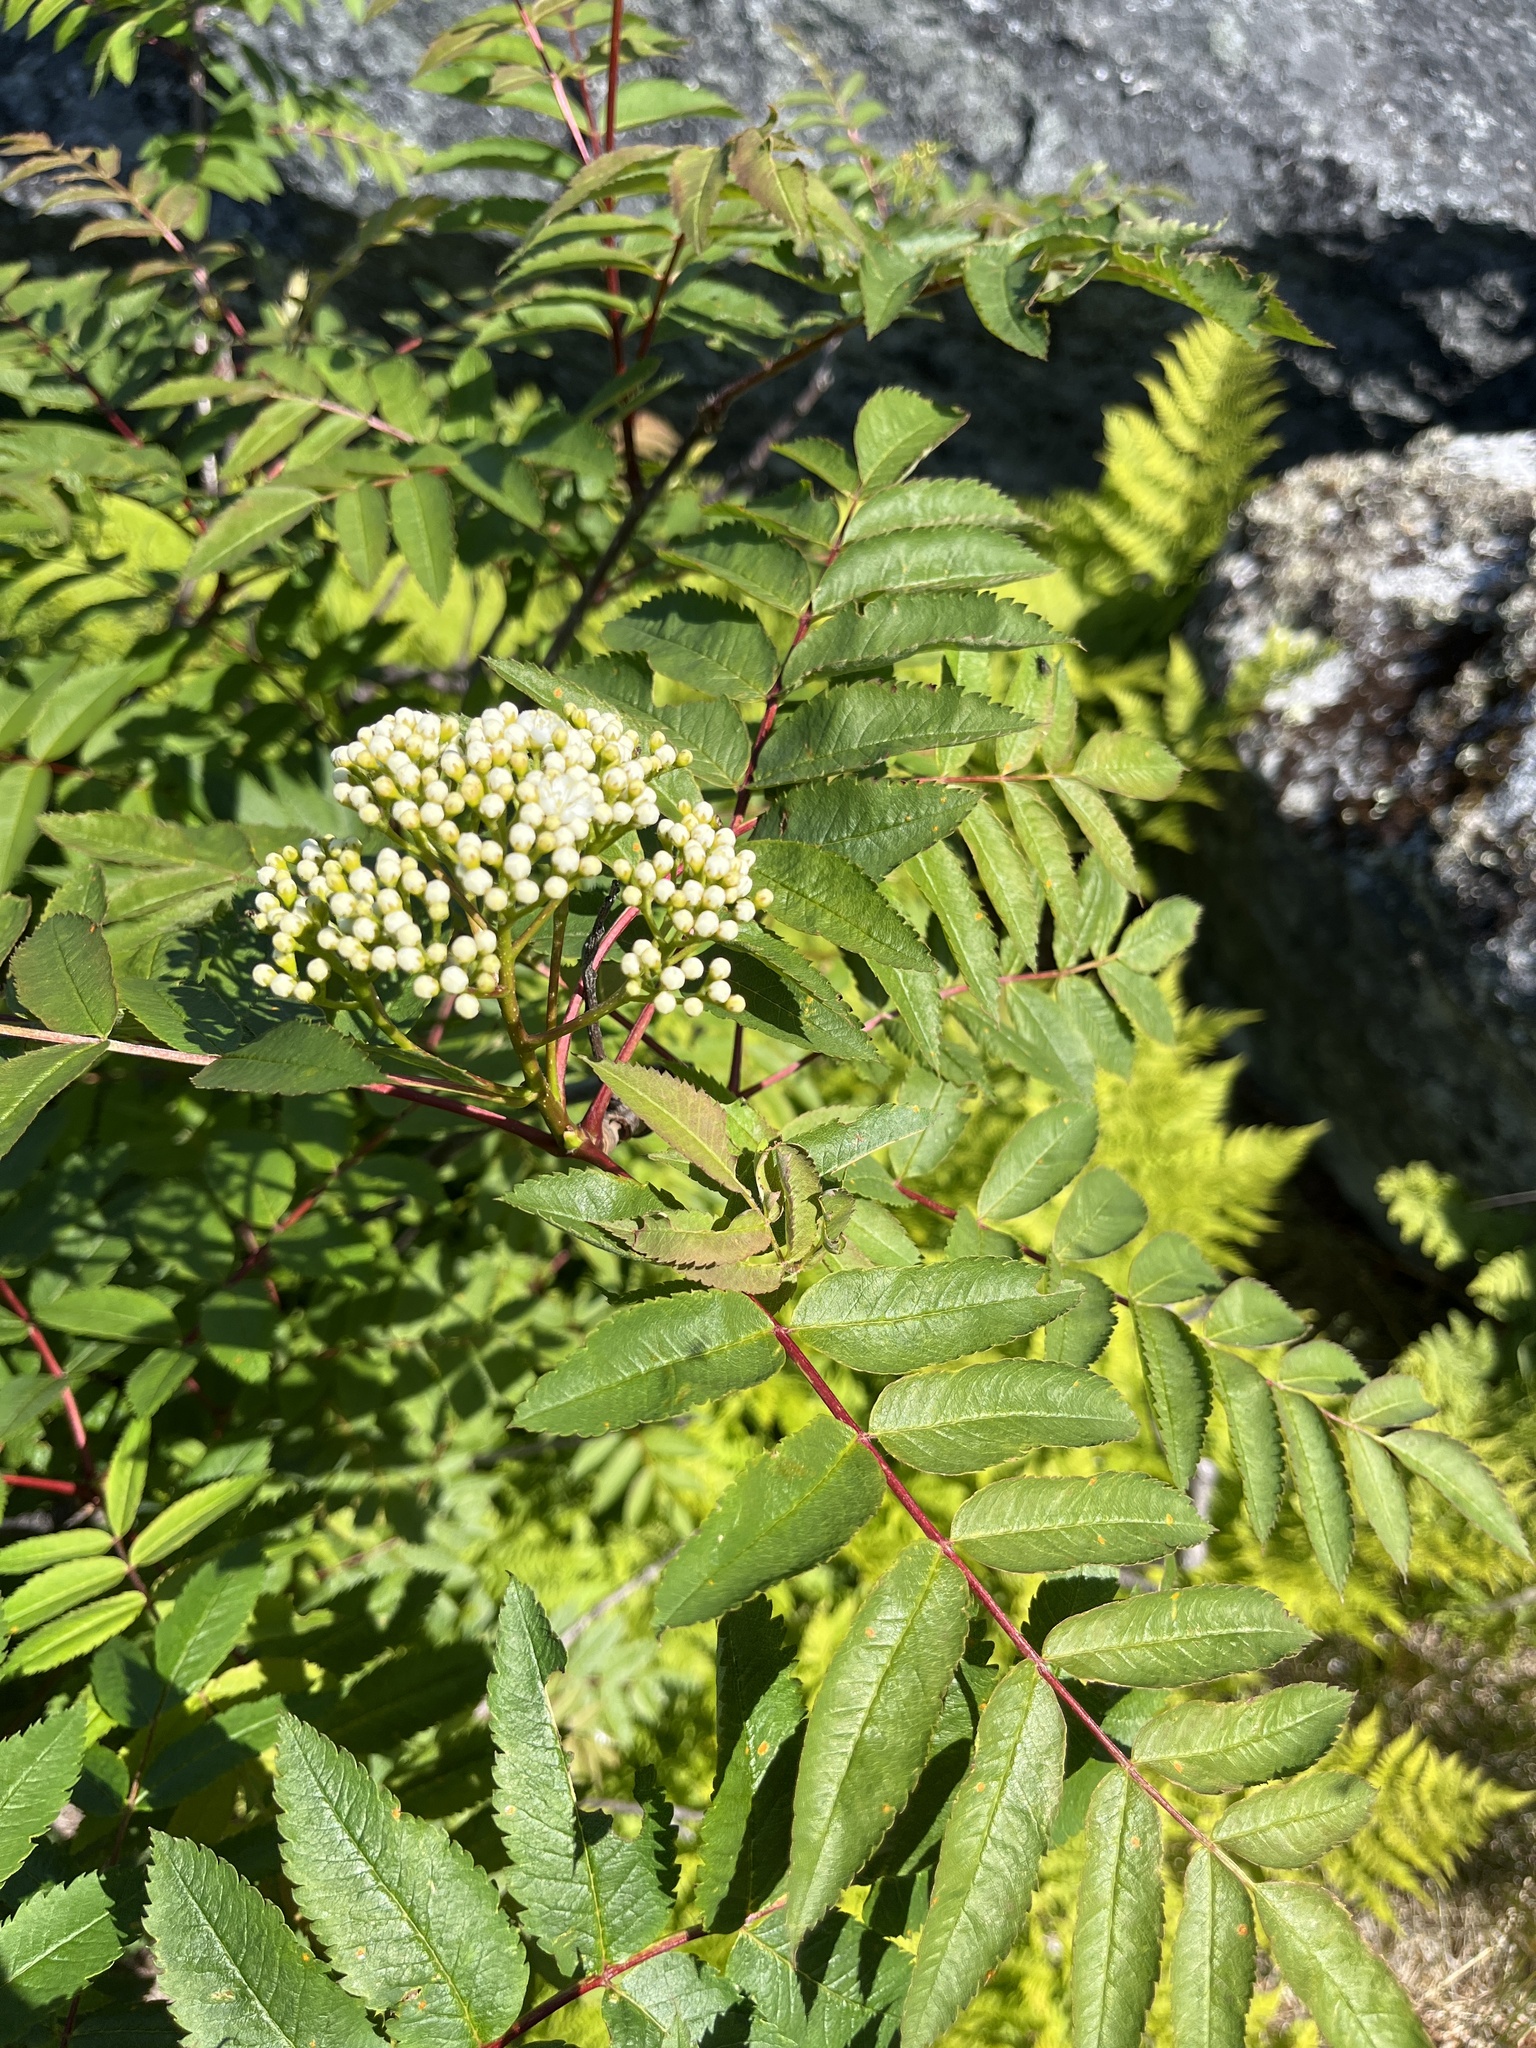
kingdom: Plantae
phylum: Tracheophyta
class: Magnoliopsida
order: Rosales
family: Rosaceae
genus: Sorbus
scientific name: Sorbus decora
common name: Northern mountain-ash
